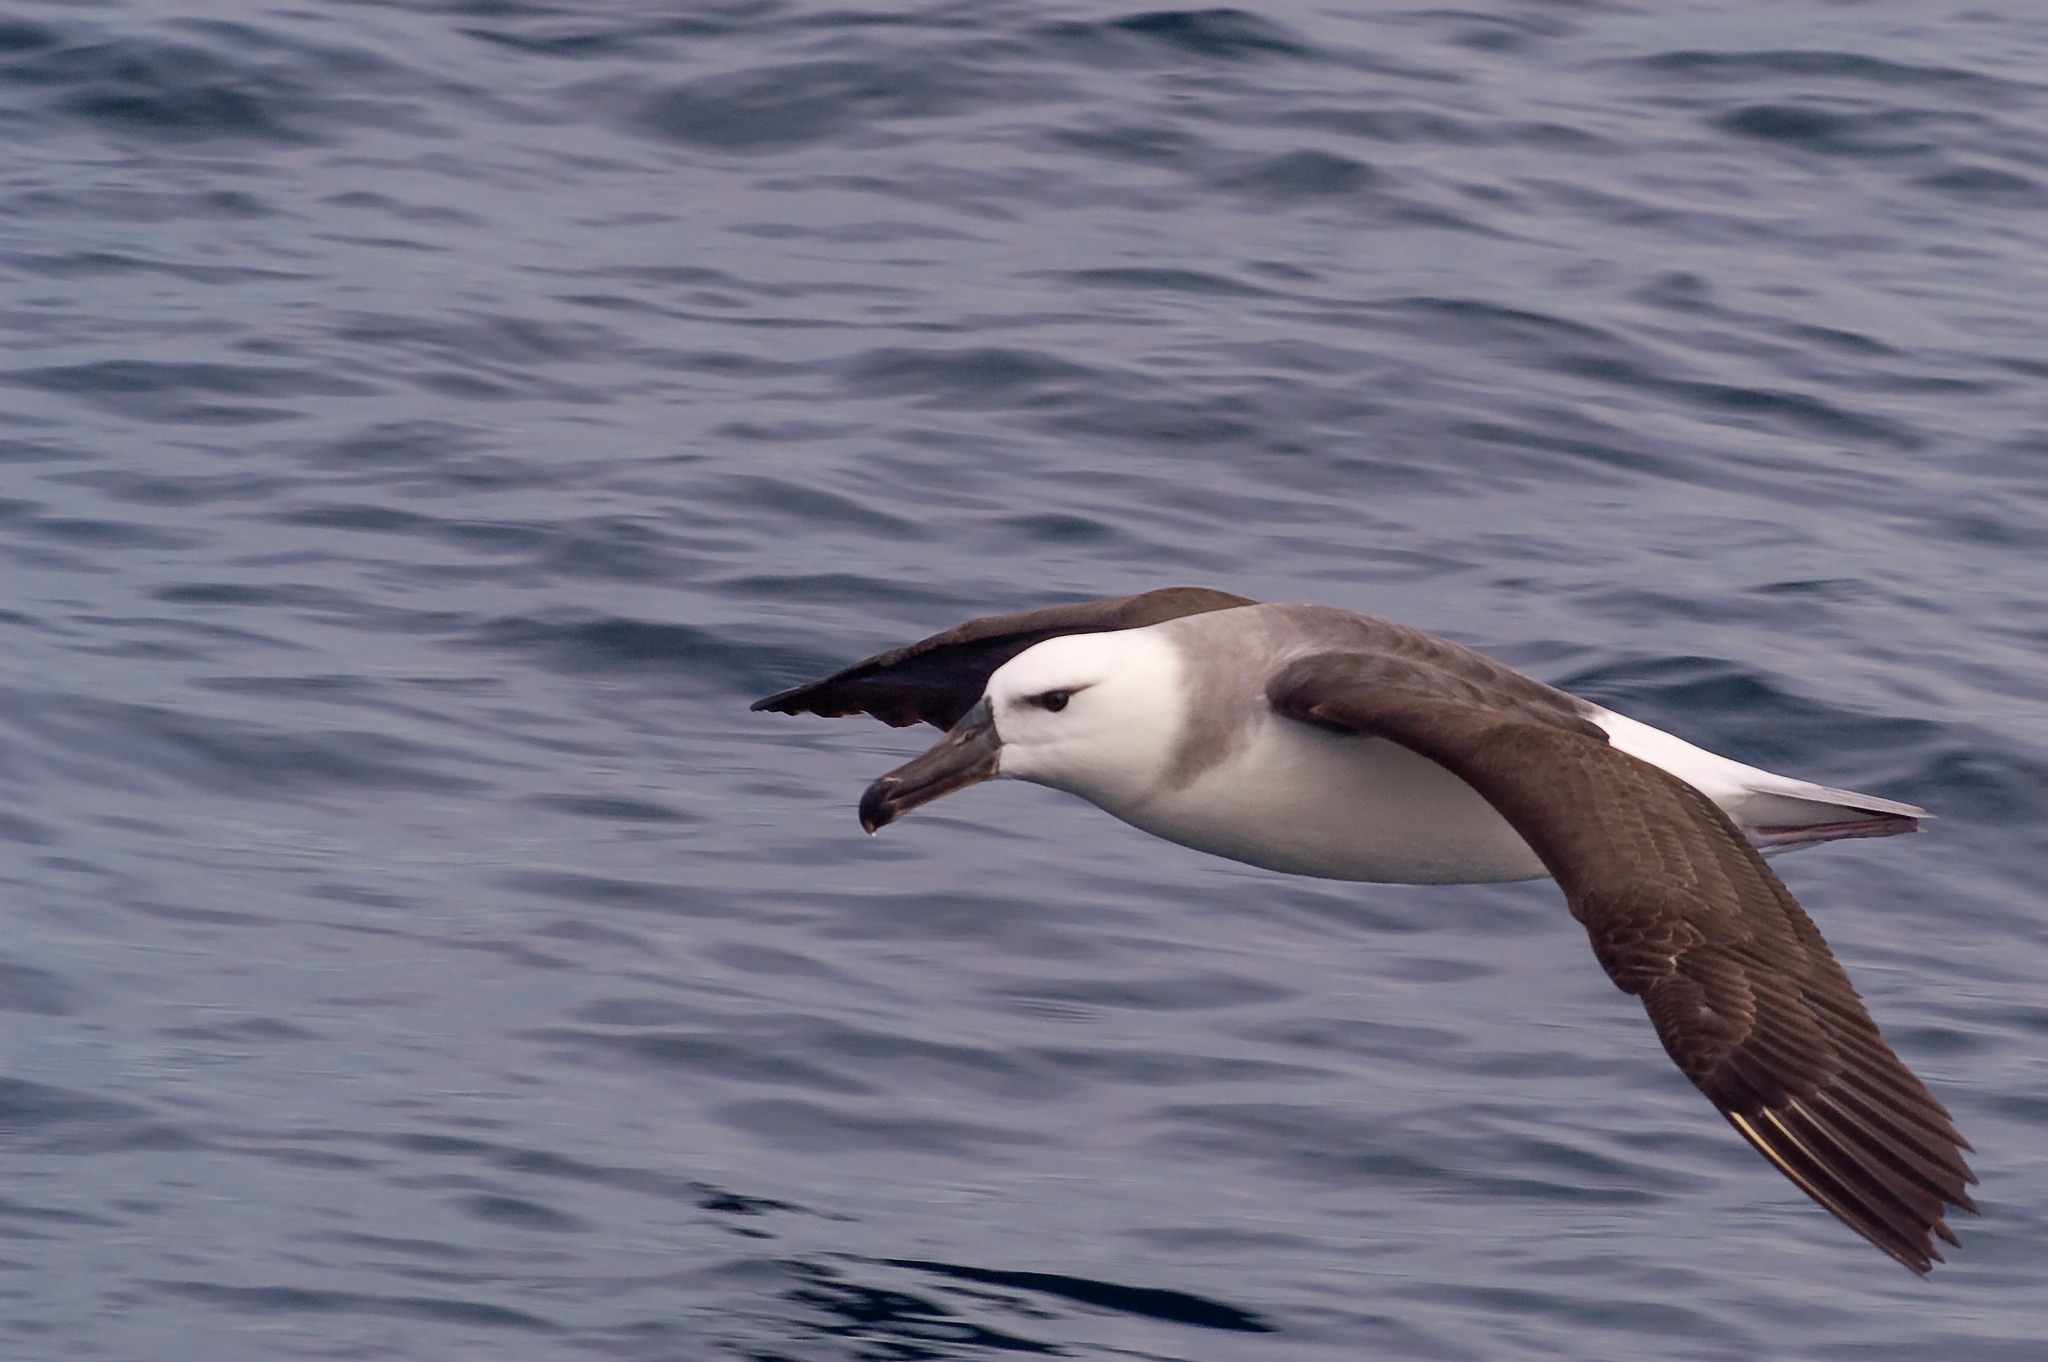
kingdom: Animalia
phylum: Chordata
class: Aves
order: Procellariiformes
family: Diomedeidae
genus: Thalassarche
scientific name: Thalassarche melanophris
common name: Black-browed albatross
